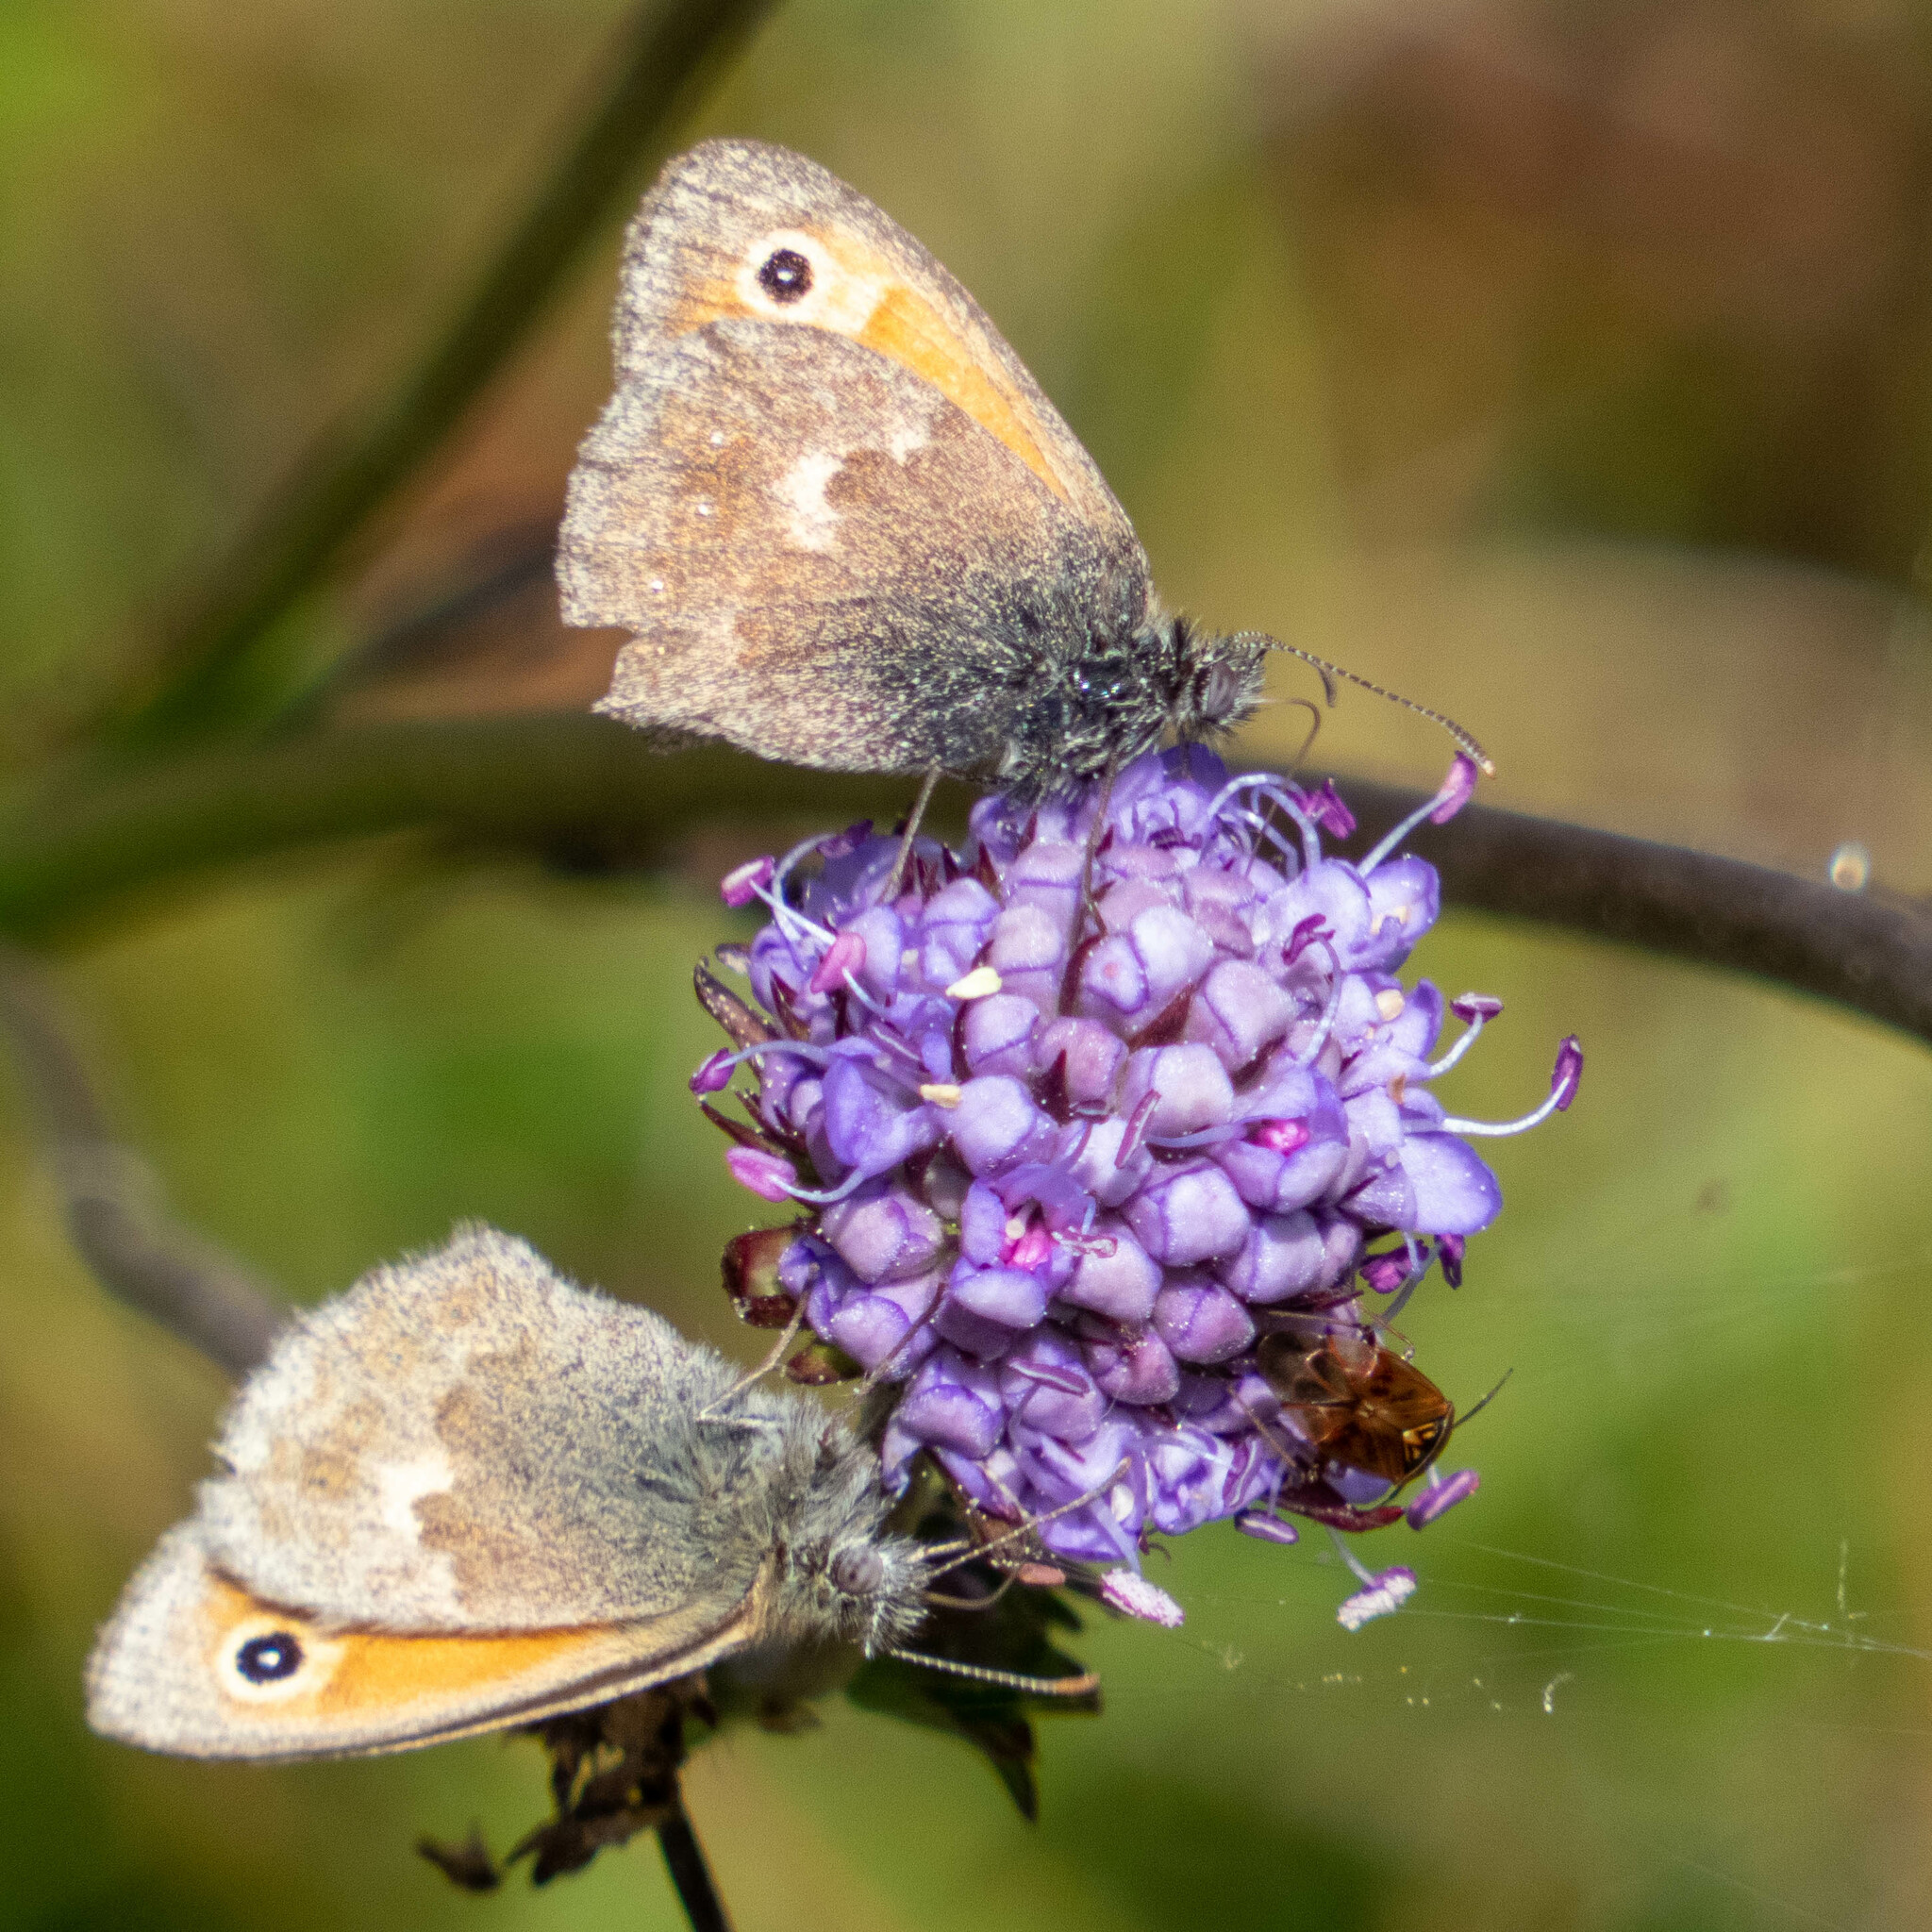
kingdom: Animalia
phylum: Arthropoda
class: Insecta
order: Lepidoptera
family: Nymphalidae
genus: Coenonympha
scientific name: Coenonympha pamphilus
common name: Small heath
